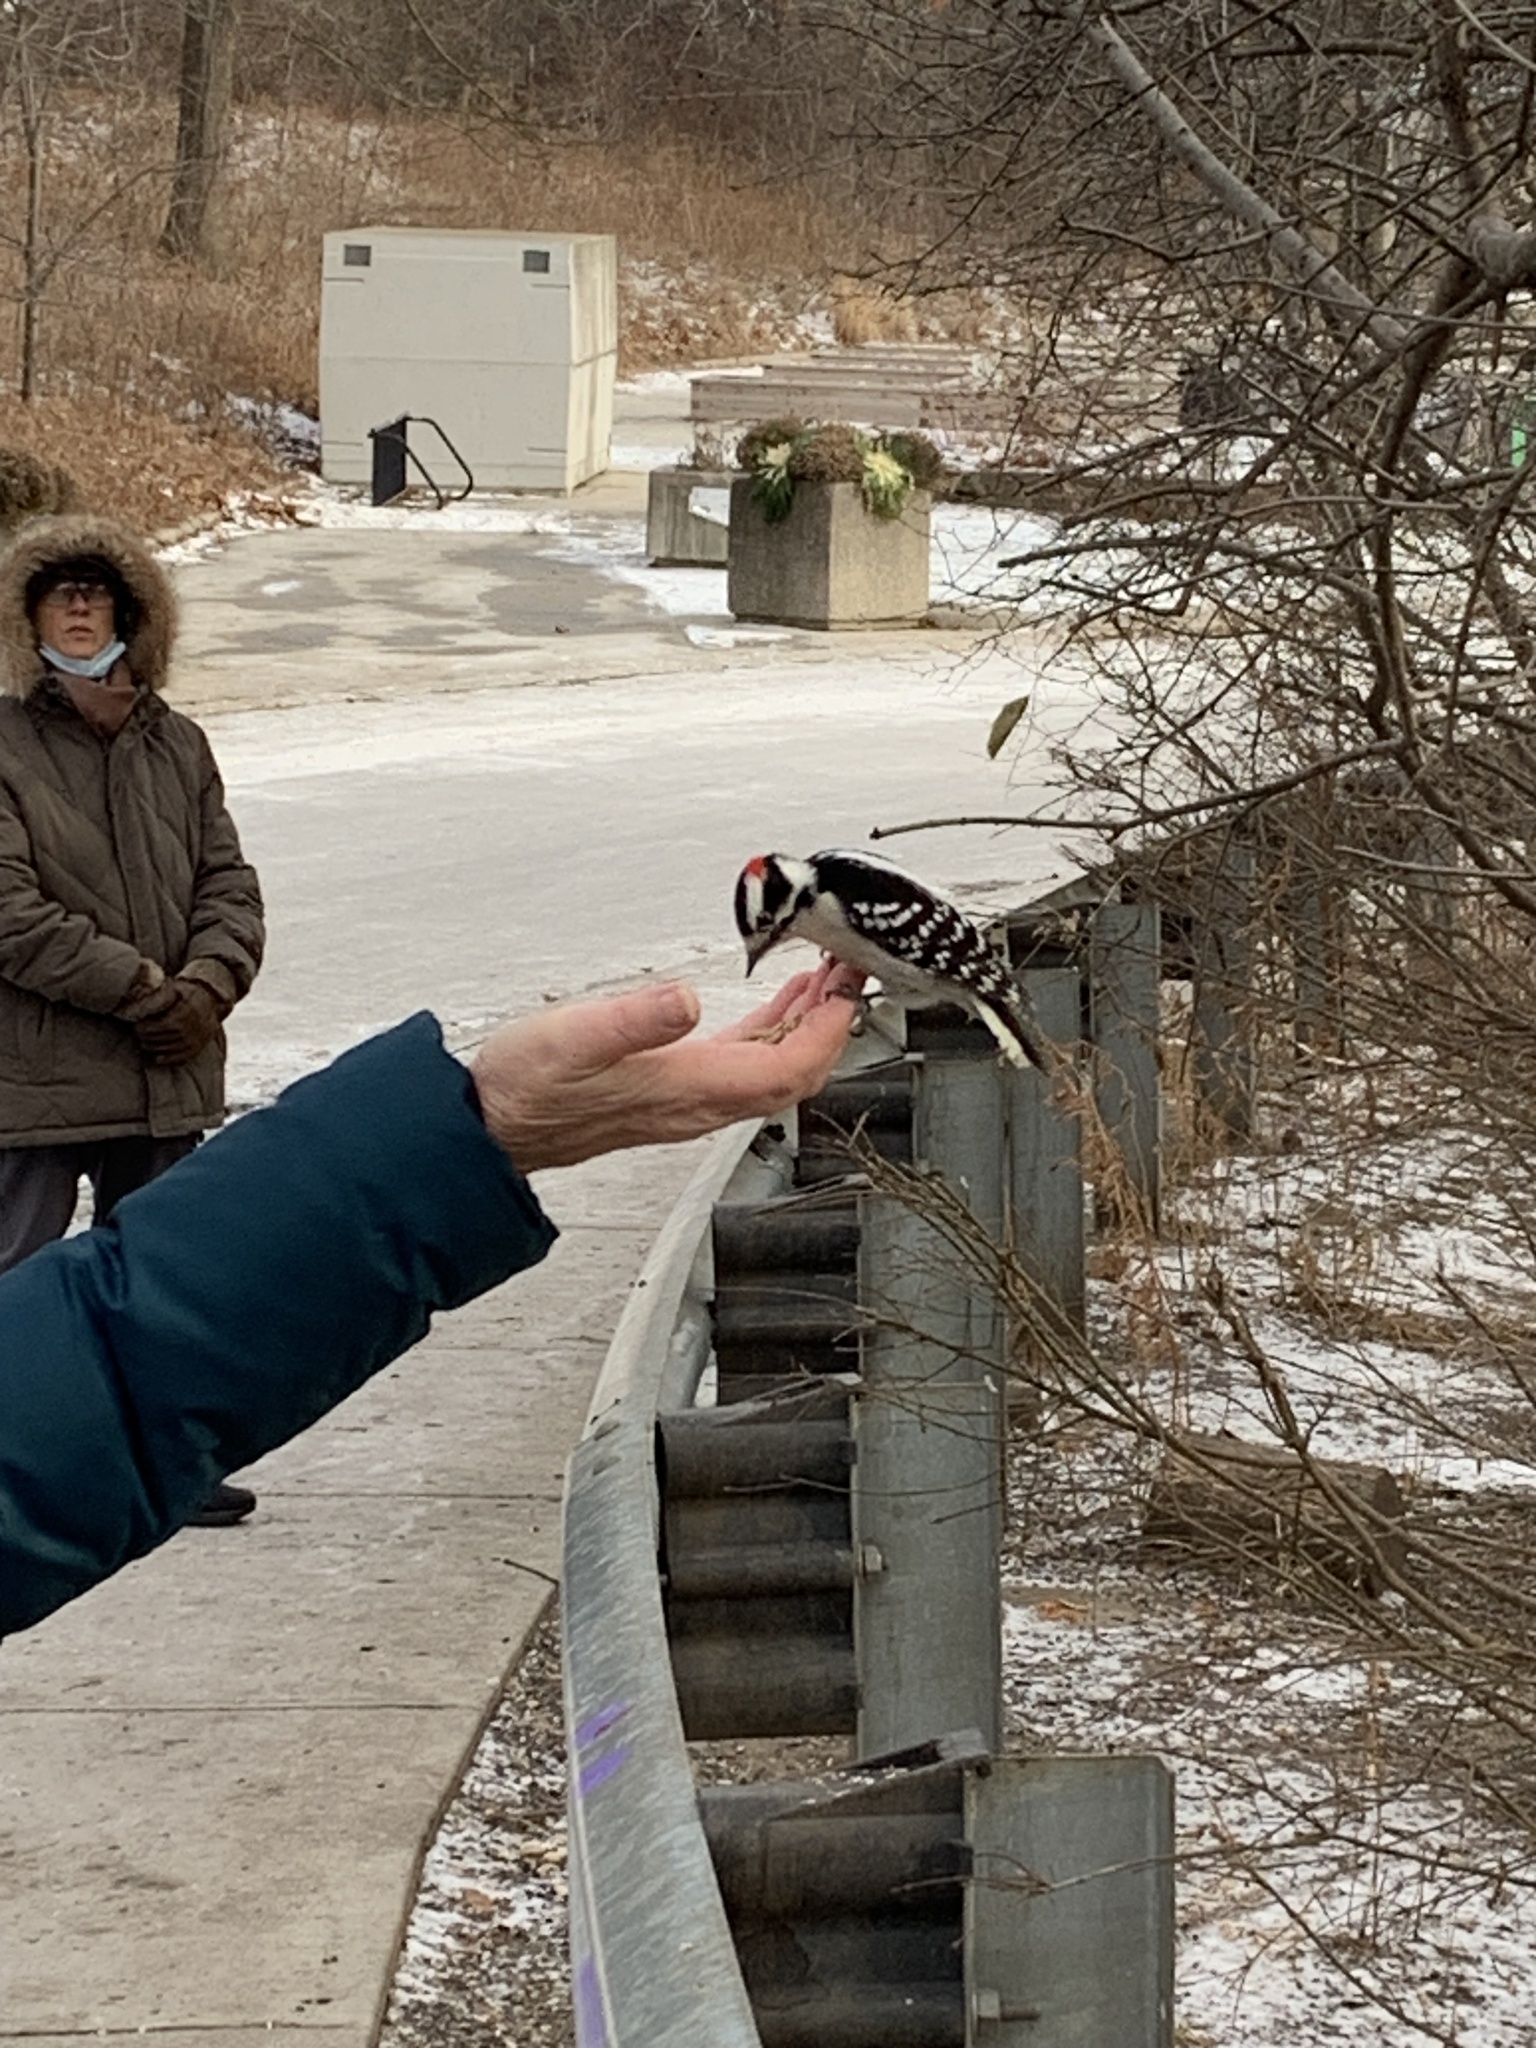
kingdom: Animalia
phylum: Chordata
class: Aves
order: Piciformes
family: Picidae
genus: Dryobates
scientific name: Dryobates pubescens
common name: Downy woodpecker
